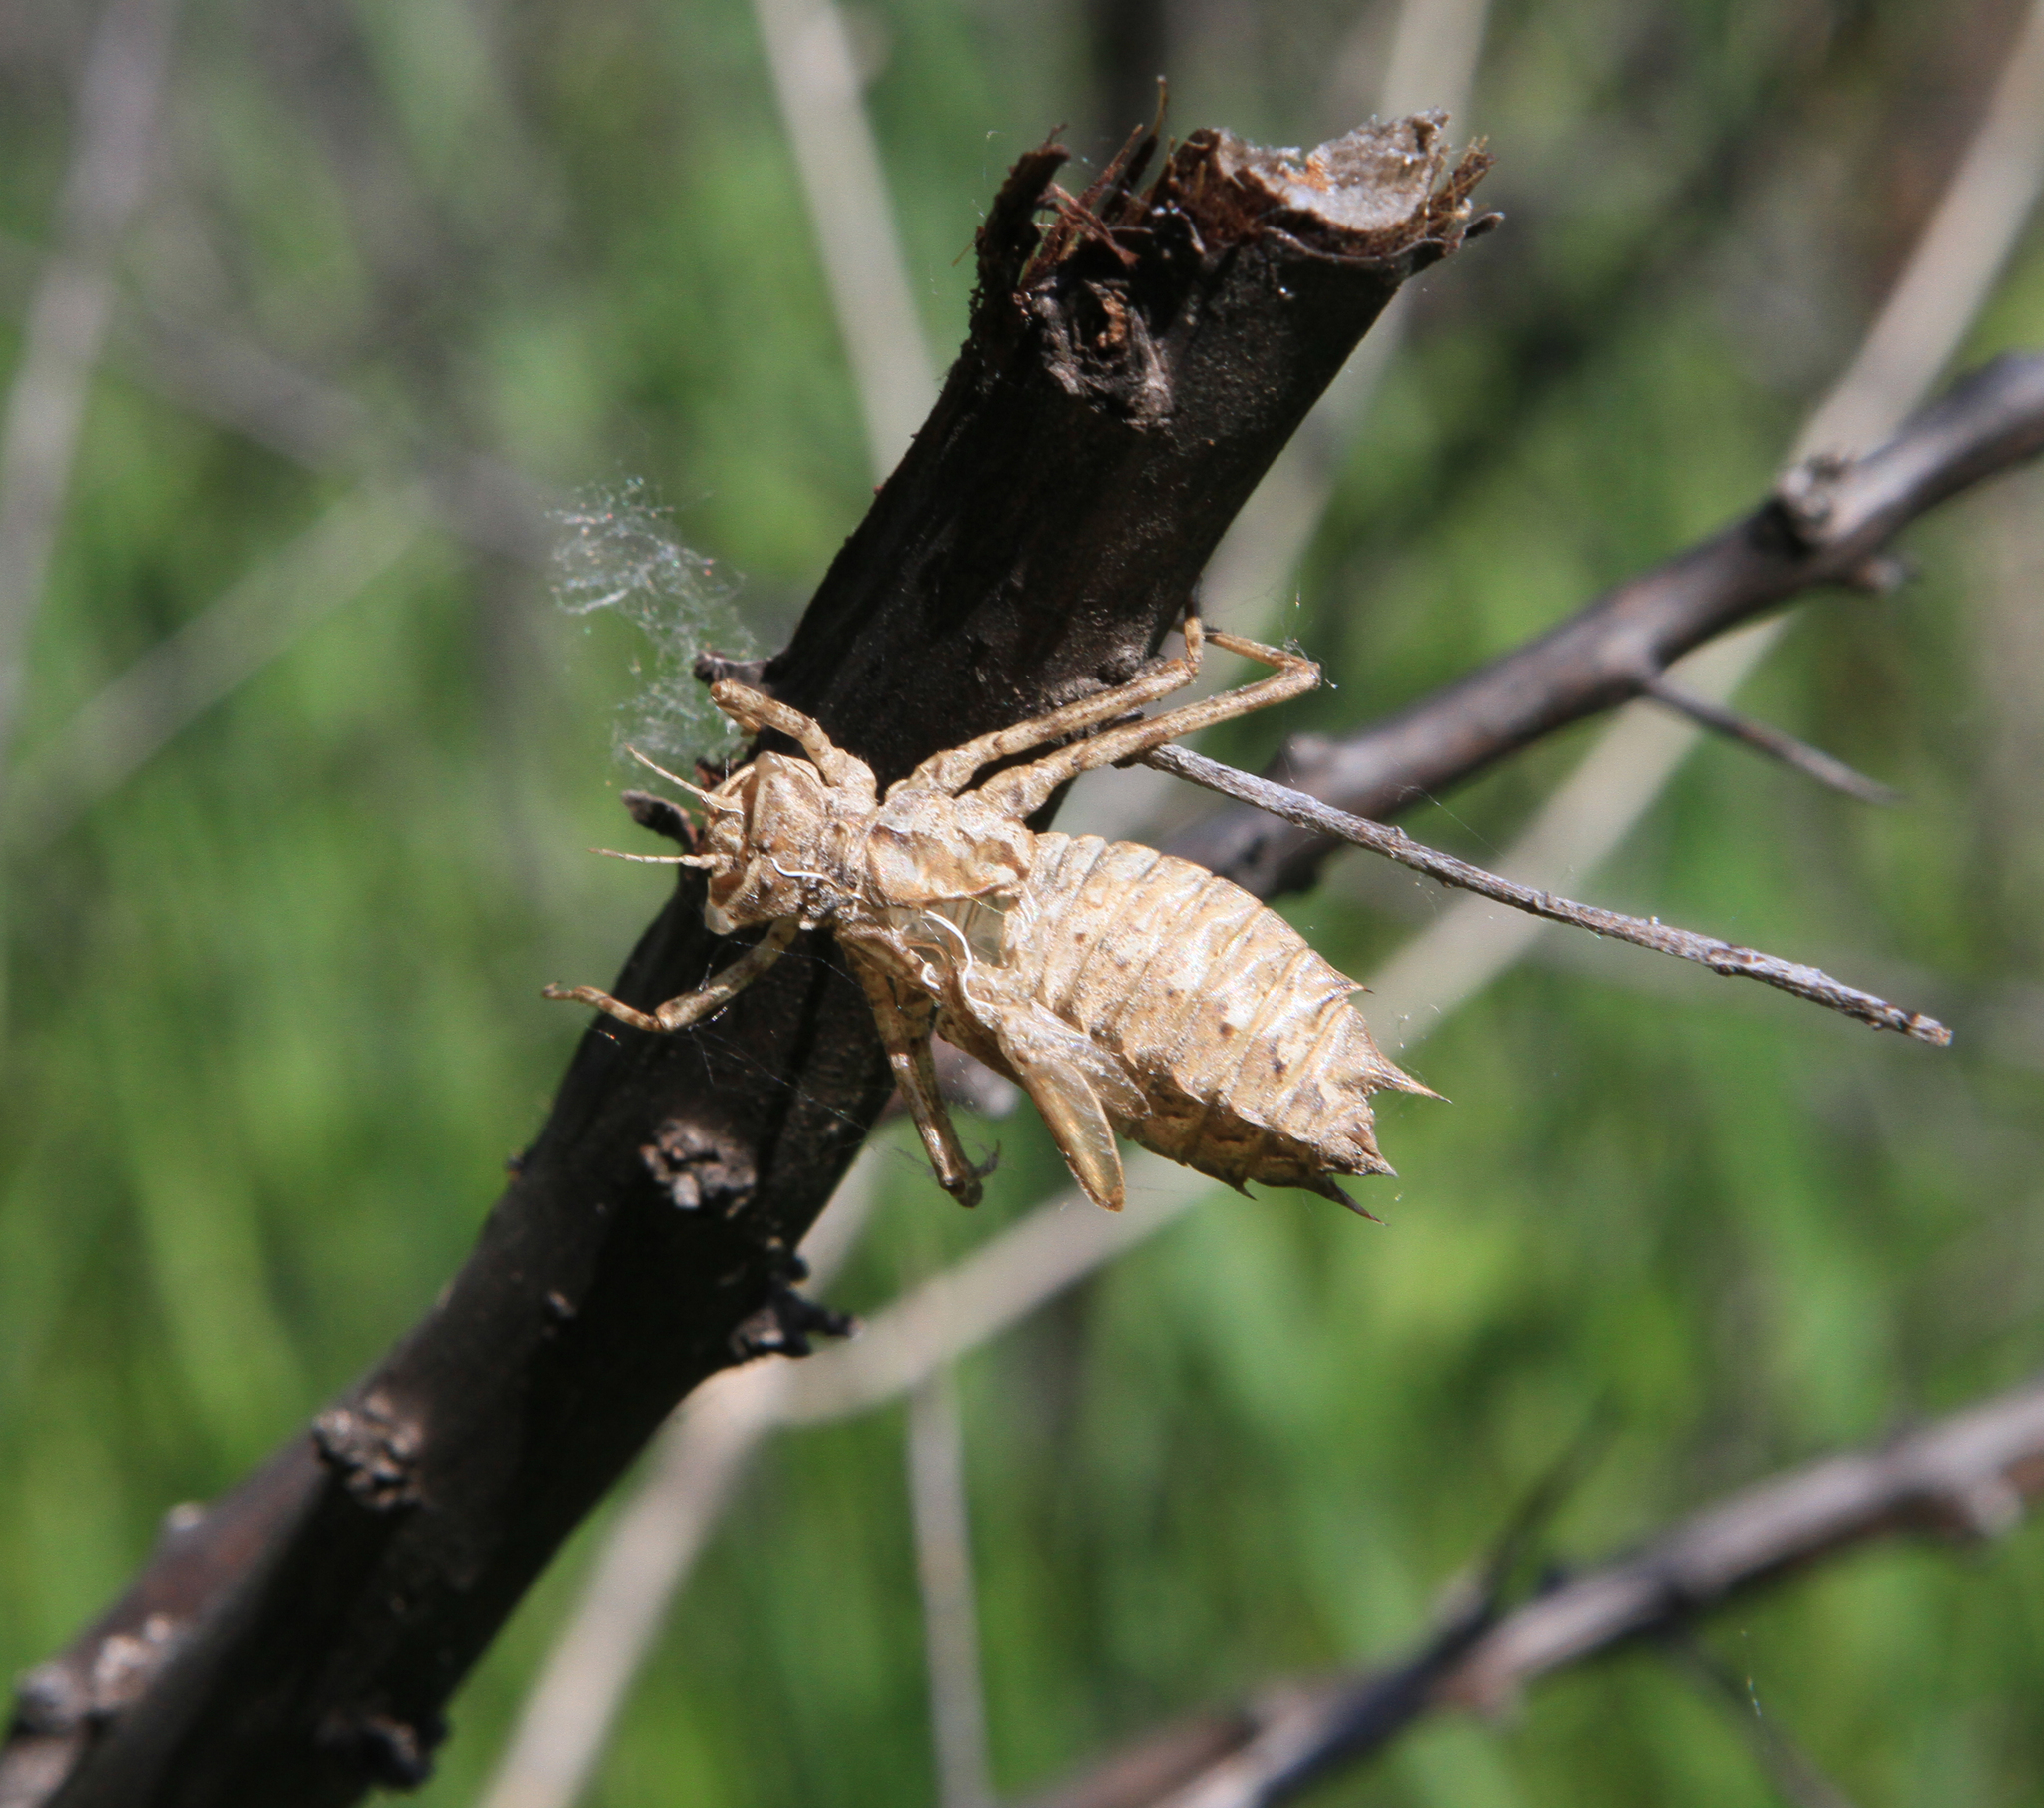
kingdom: Animalia
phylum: Arthropoda
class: Insecta
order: Odonata
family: Corduliidae
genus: Epitheca
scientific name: Epitheca bimaculata
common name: Eurasian baskettail
